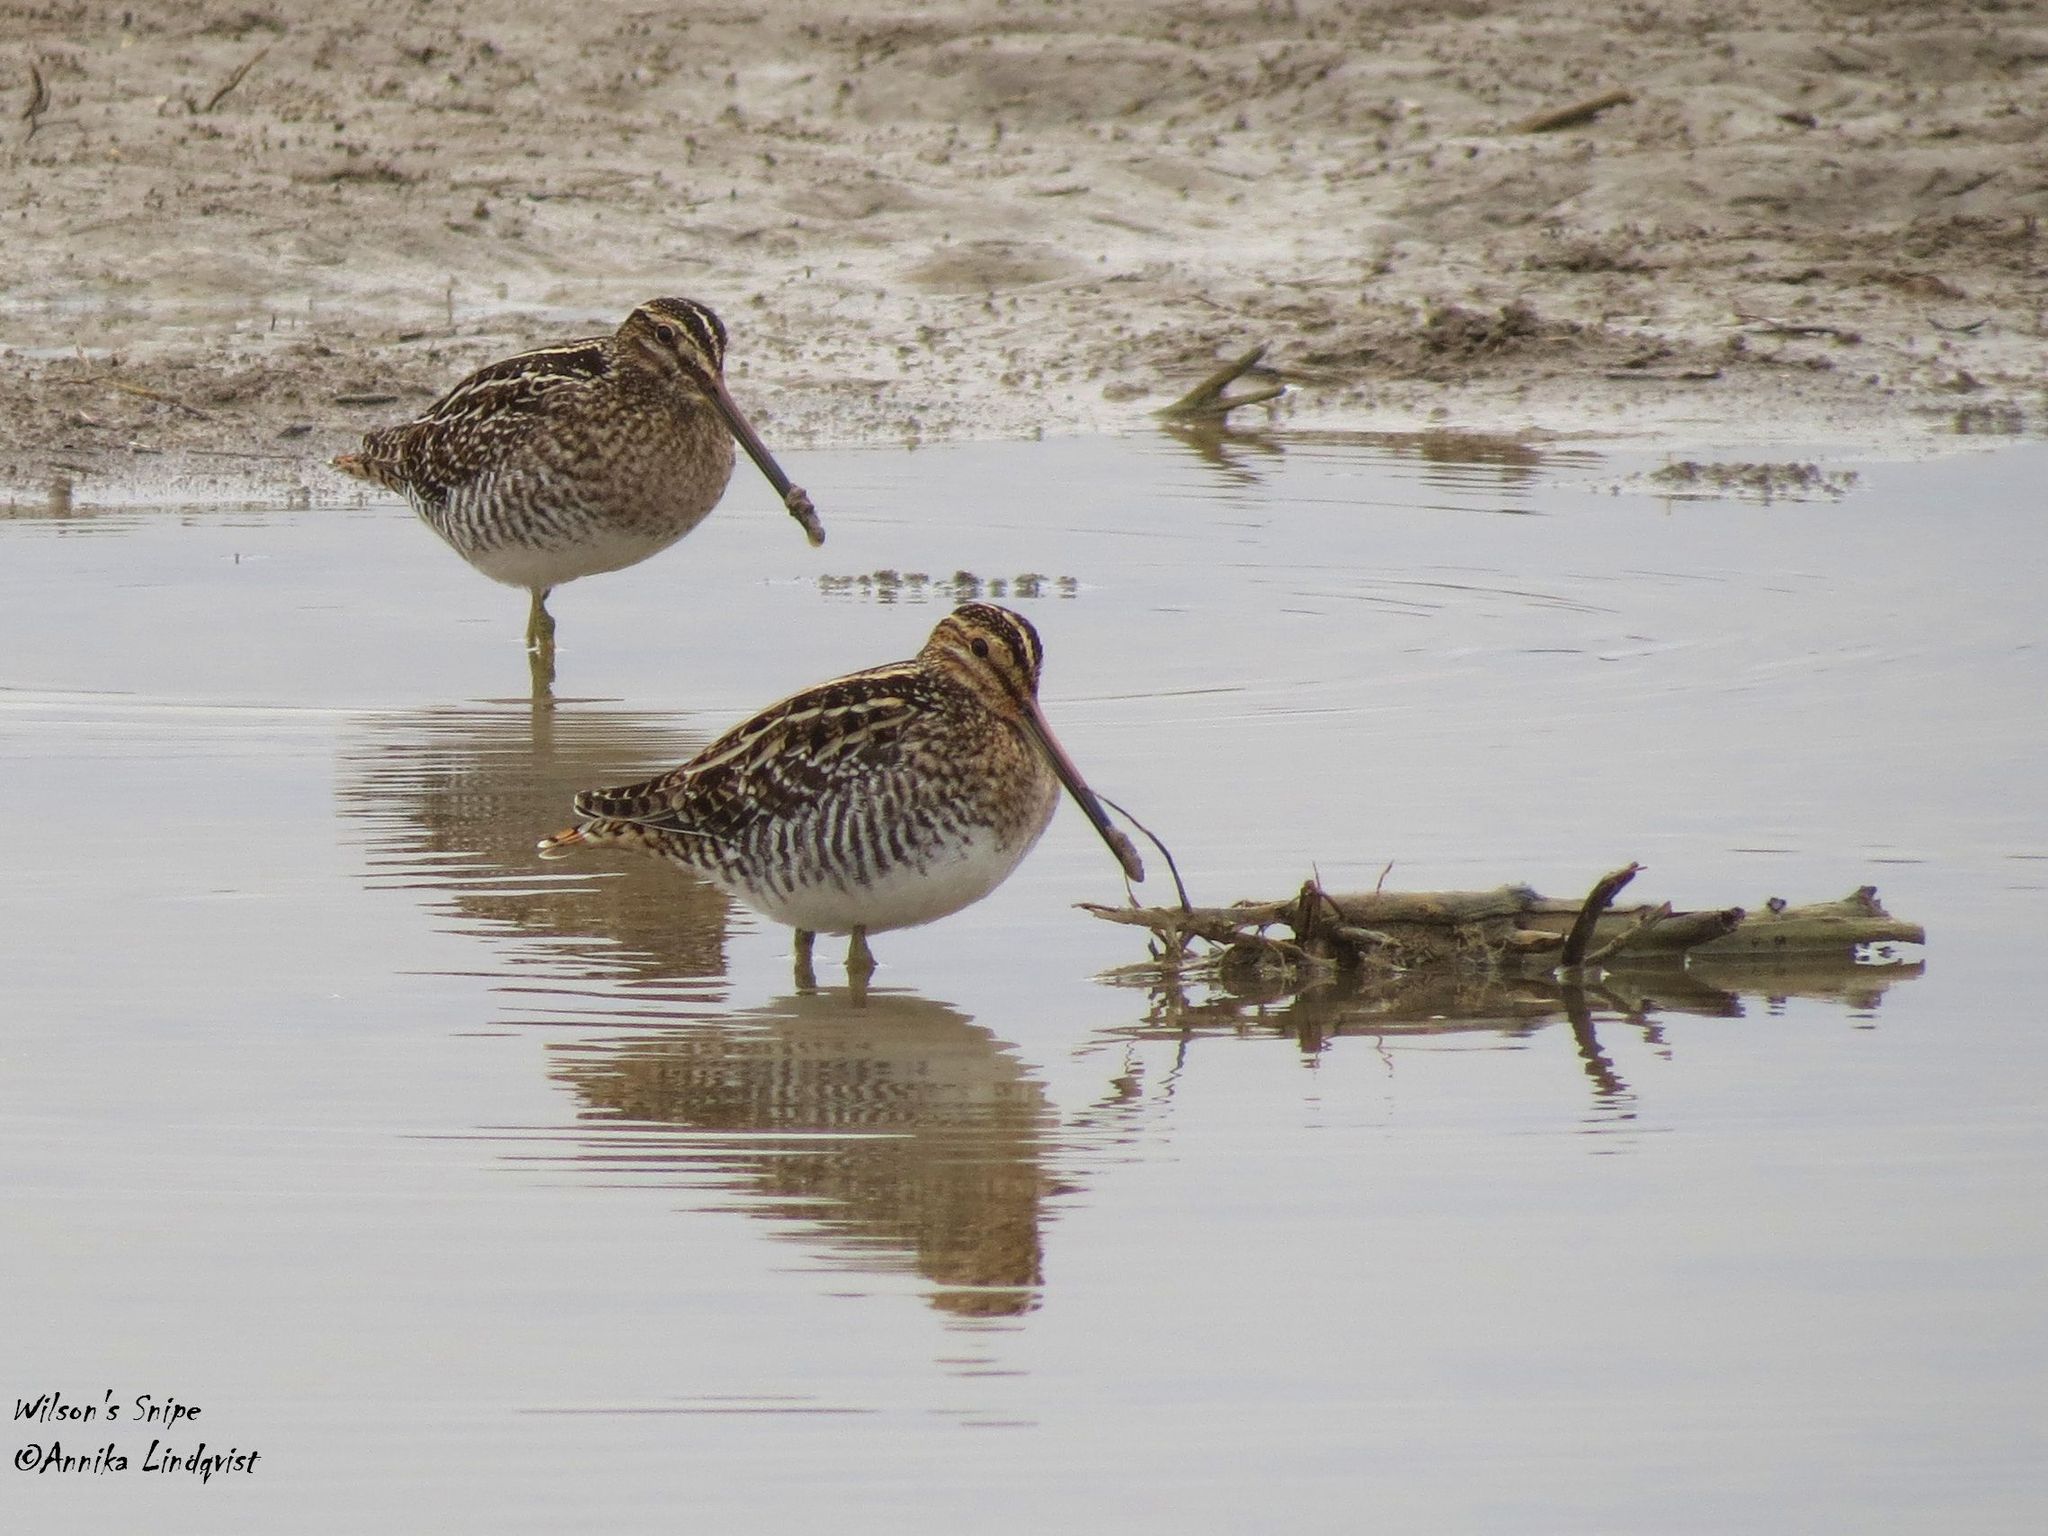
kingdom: Animalia
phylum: Chordata
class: Aves
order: Charadriiformes
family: Scolopacidae
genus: Gallinago
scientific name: Gallinago delicata
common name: Wilson's snipe
